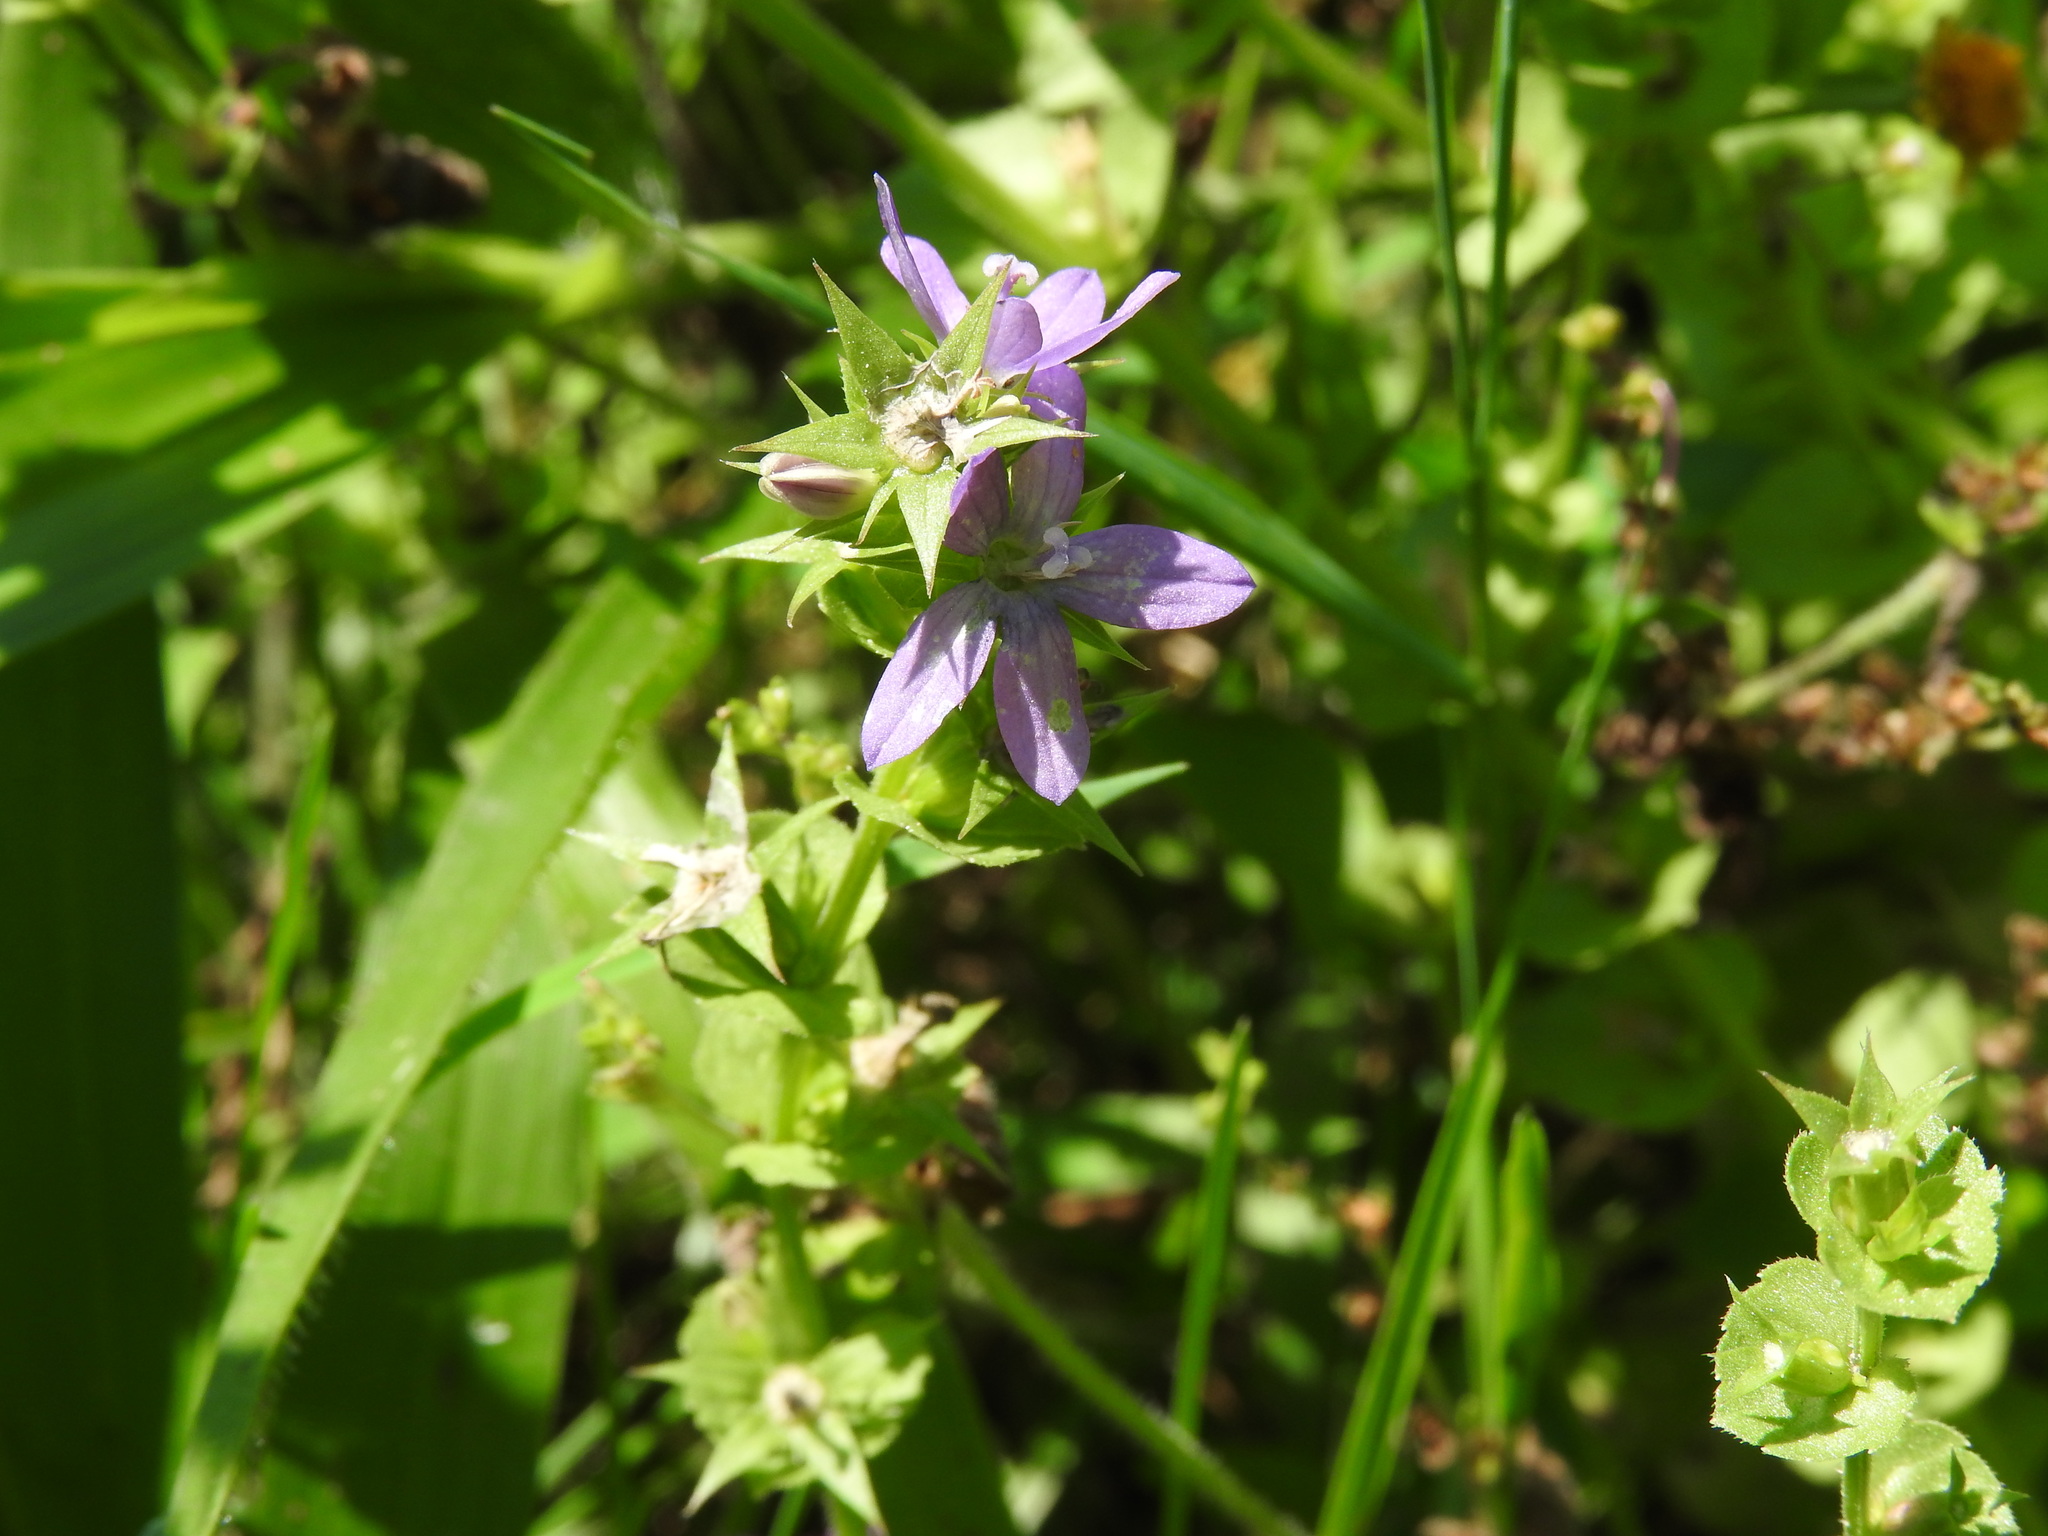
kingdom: Plantae
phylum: Tracheophyta
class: Magnoliopsida
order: Asterales
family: Campanulaceae
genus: Triodanis
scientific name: Triodanis perfoliata
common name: Clasping venus' looking-glass
